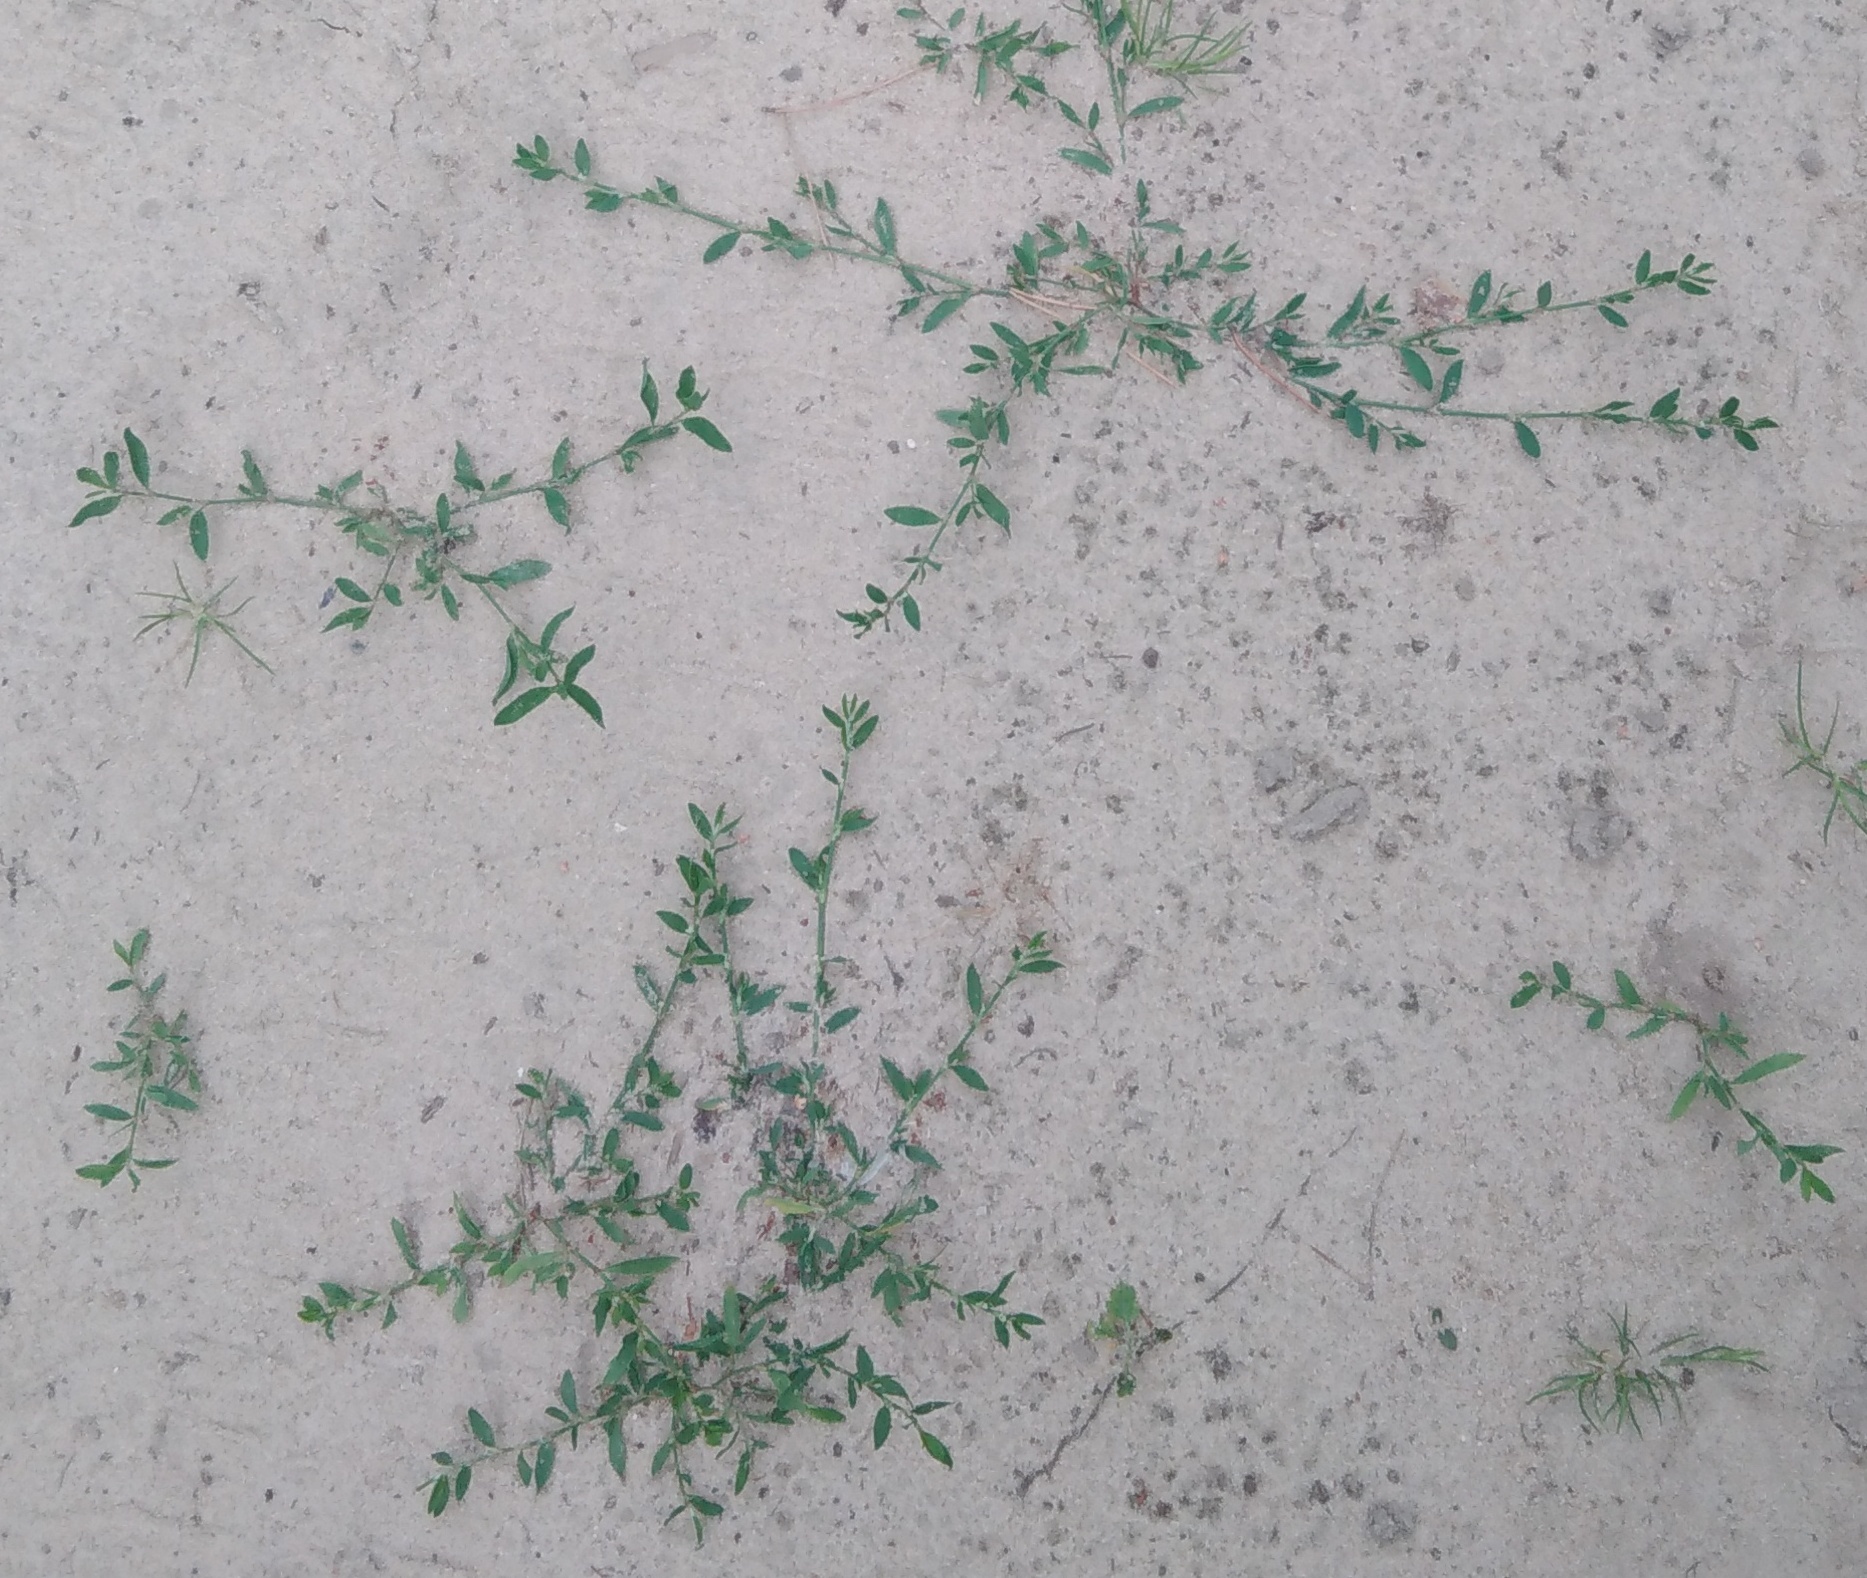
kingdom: Plantae
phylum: Tracheophyta
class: Magnoliopsida
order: Caryophyllales
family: Polygonaceae
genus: Polygonum
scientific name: Polygonum
